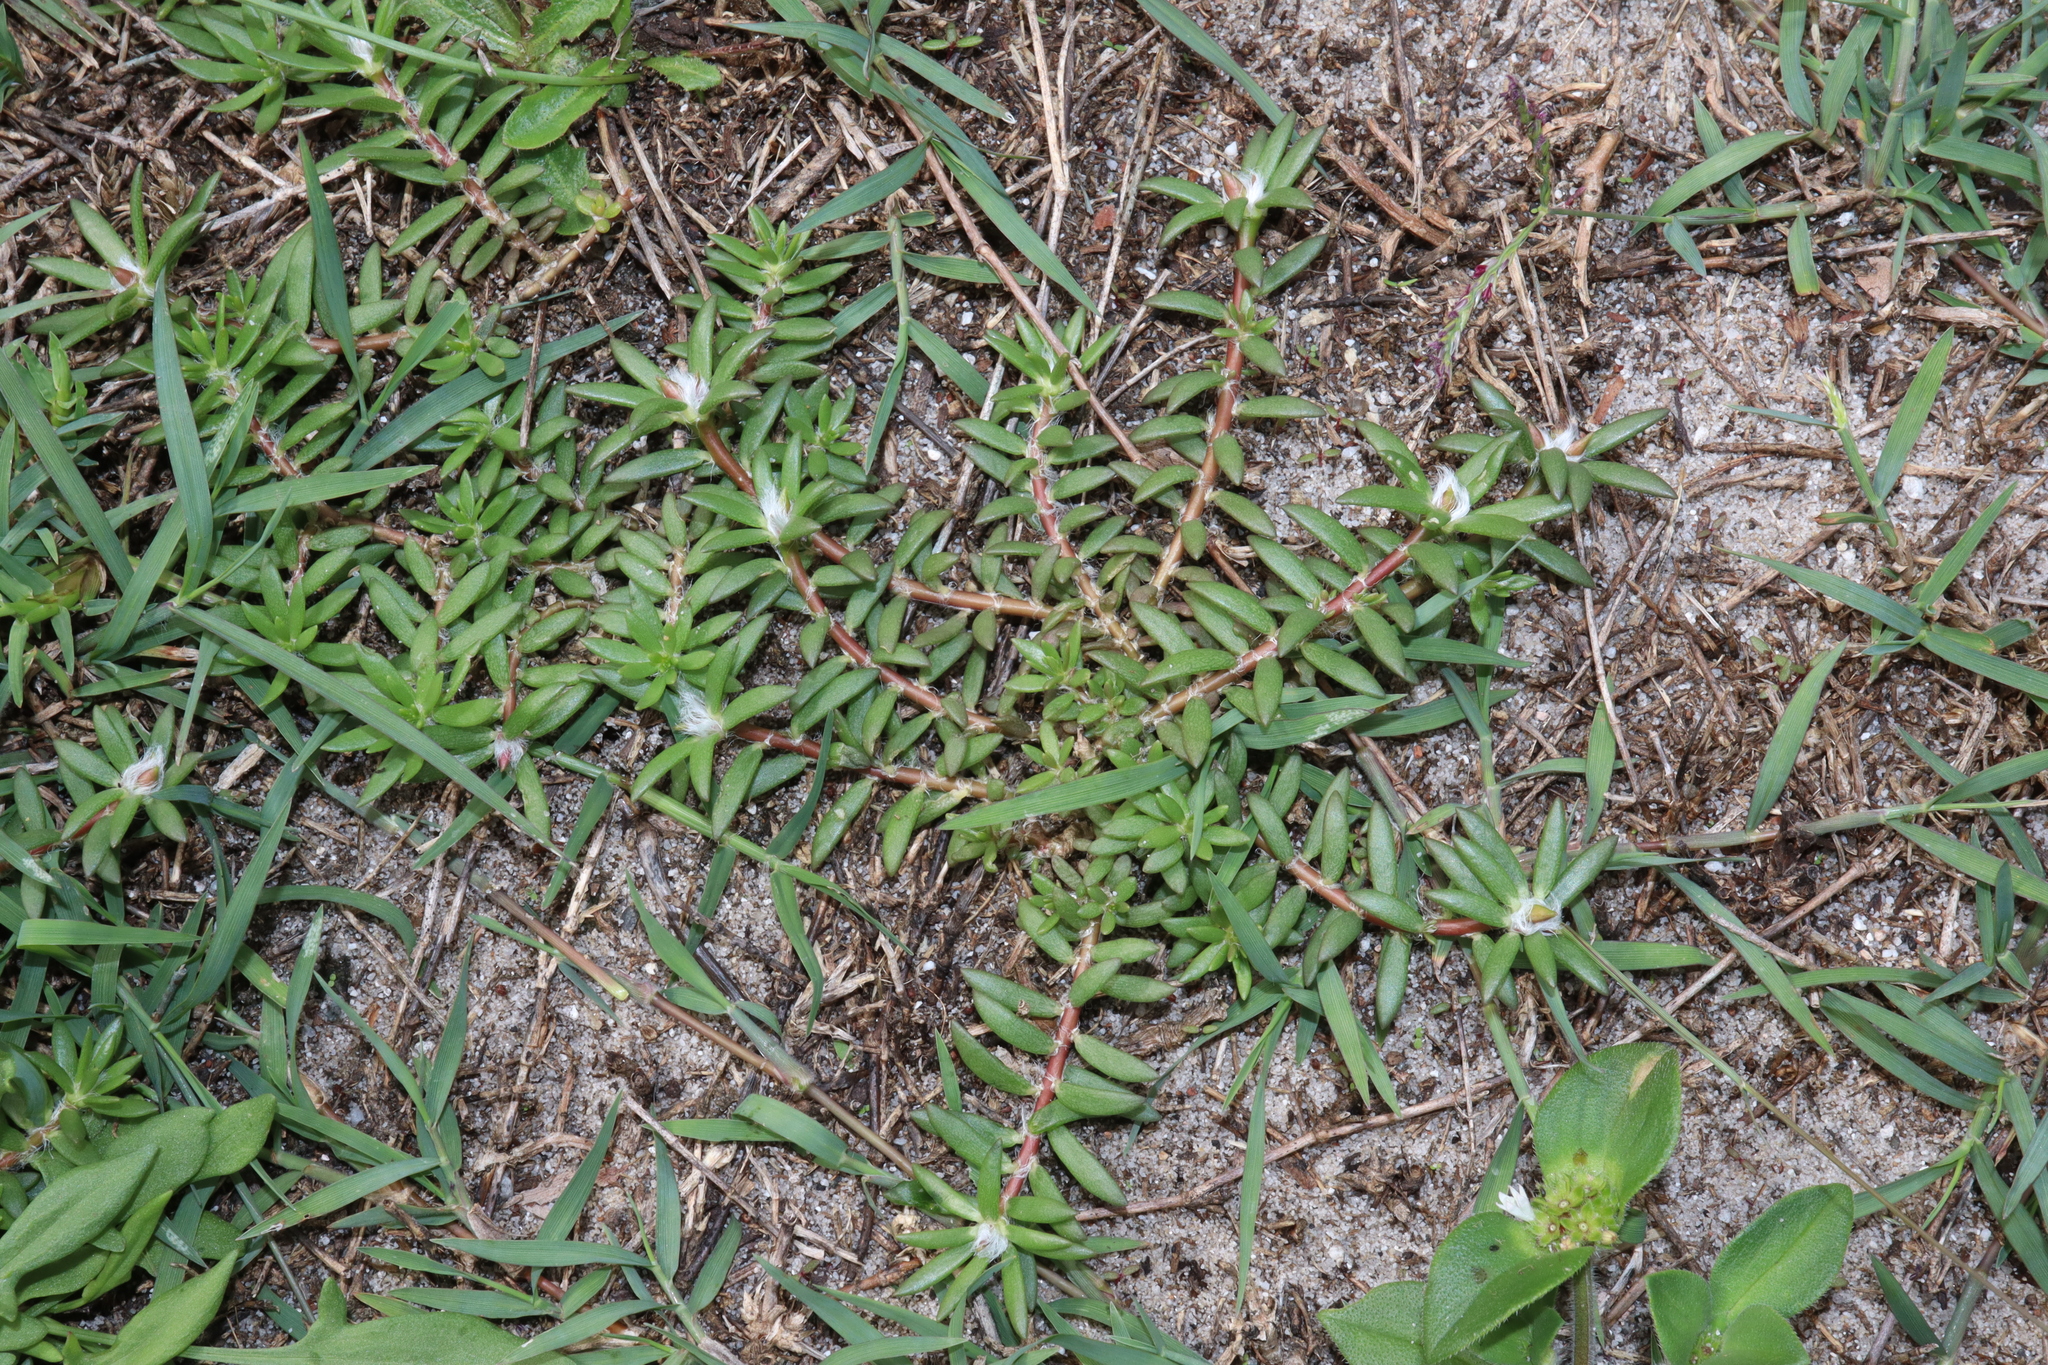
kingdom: Plantae
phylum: Tracheophyta
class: Magnoliopsida
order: Caryophyllales
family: Portulacaceae
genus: Portulaca
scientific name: Portulaca pilosa
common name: Kiss me quick
